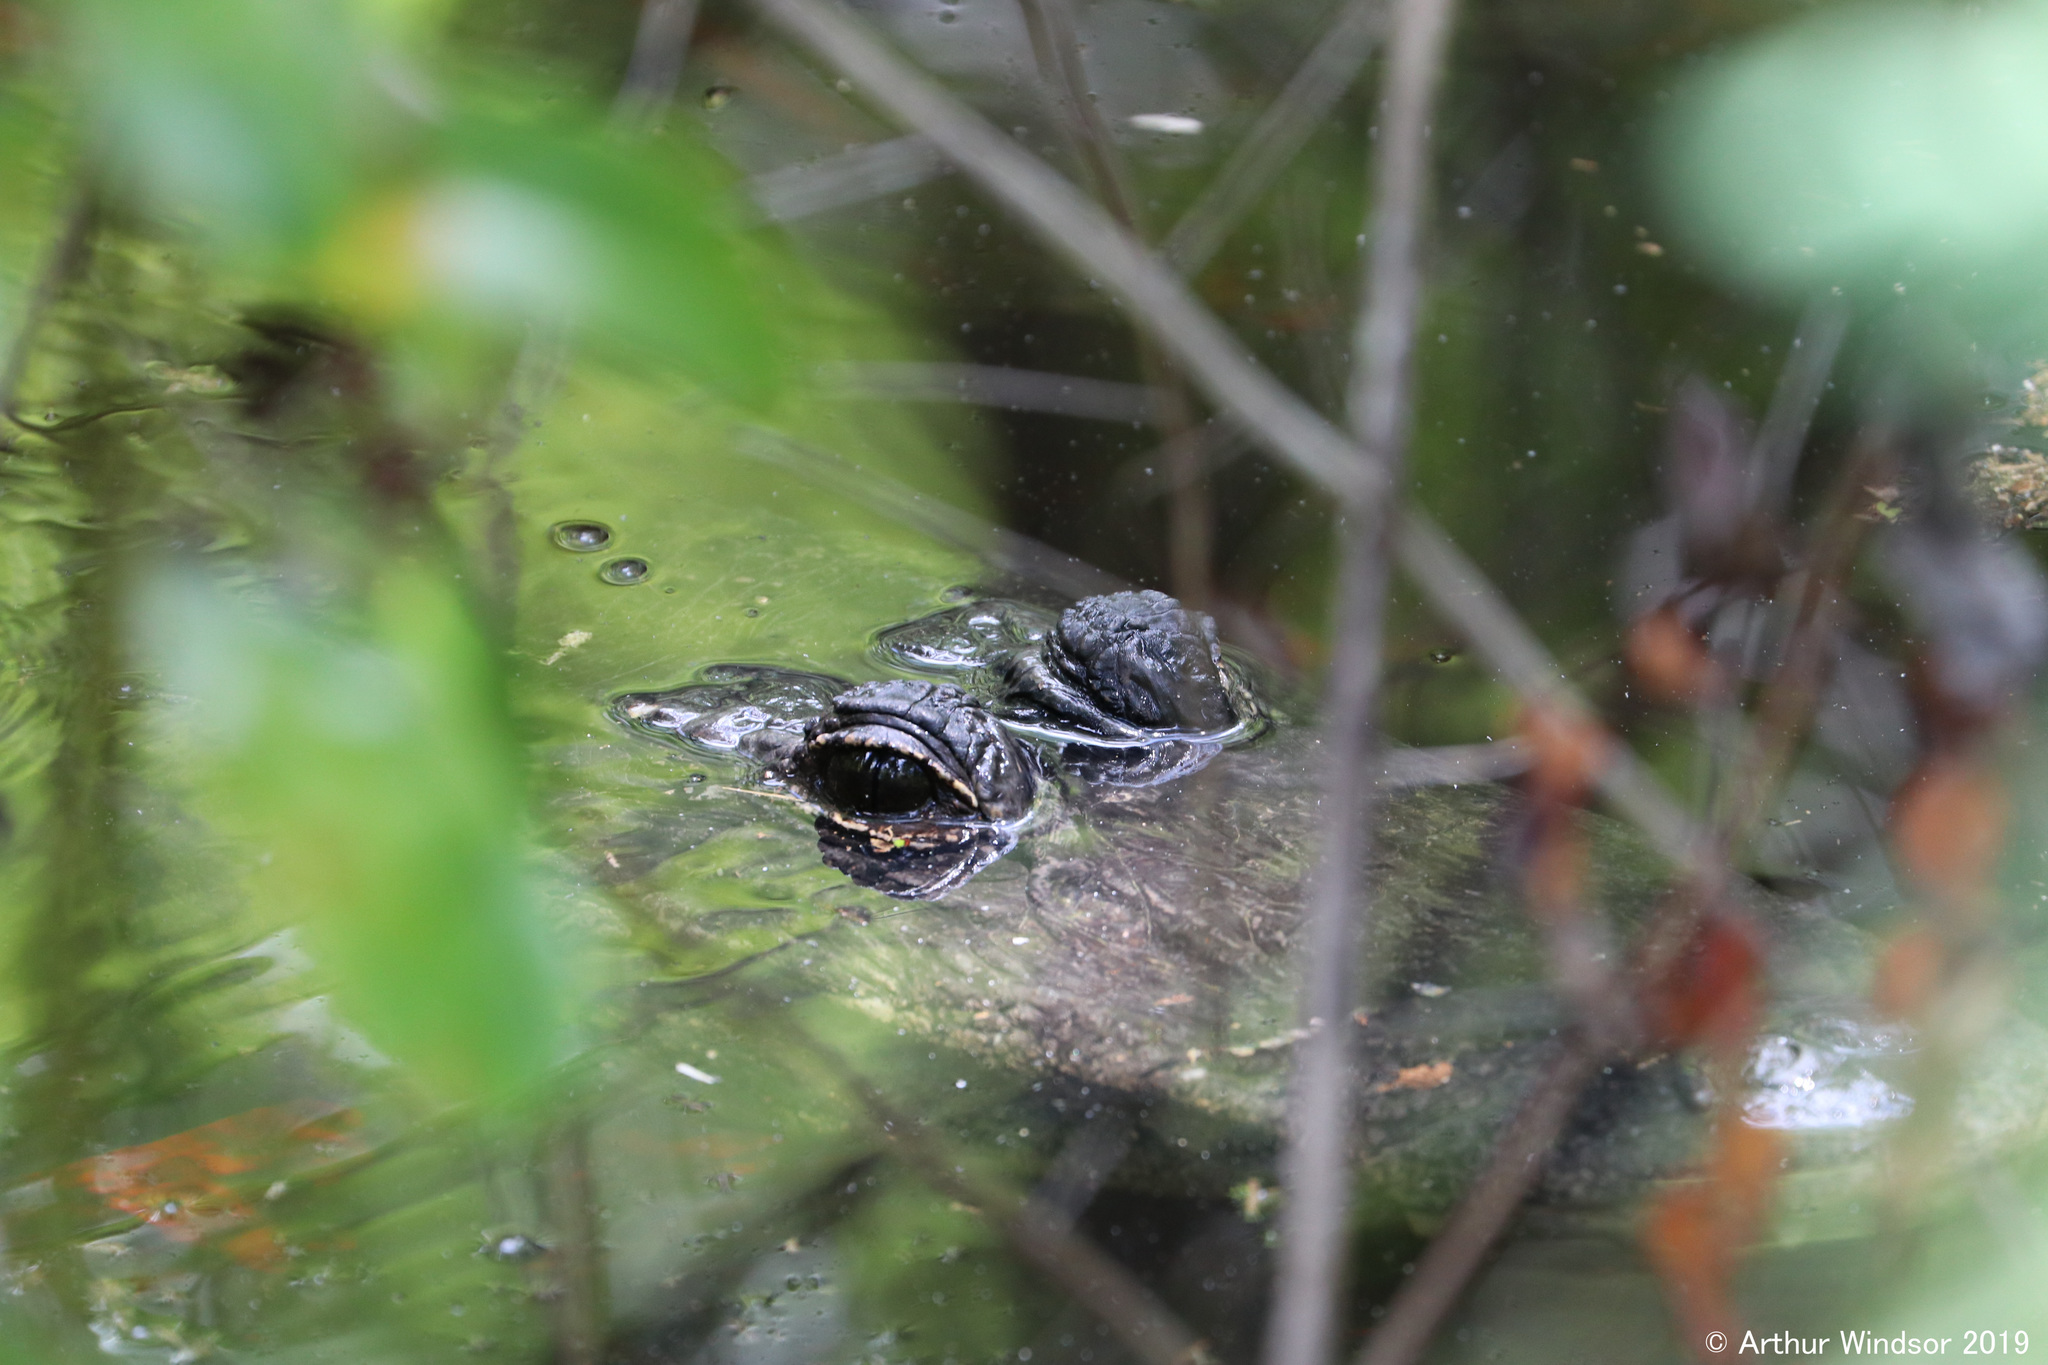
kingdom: Animalia
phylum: Chordata
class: Crocodylia
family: Alligatoridae
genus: Alligator
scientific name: Alligator mississippiensis
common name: American alligator
